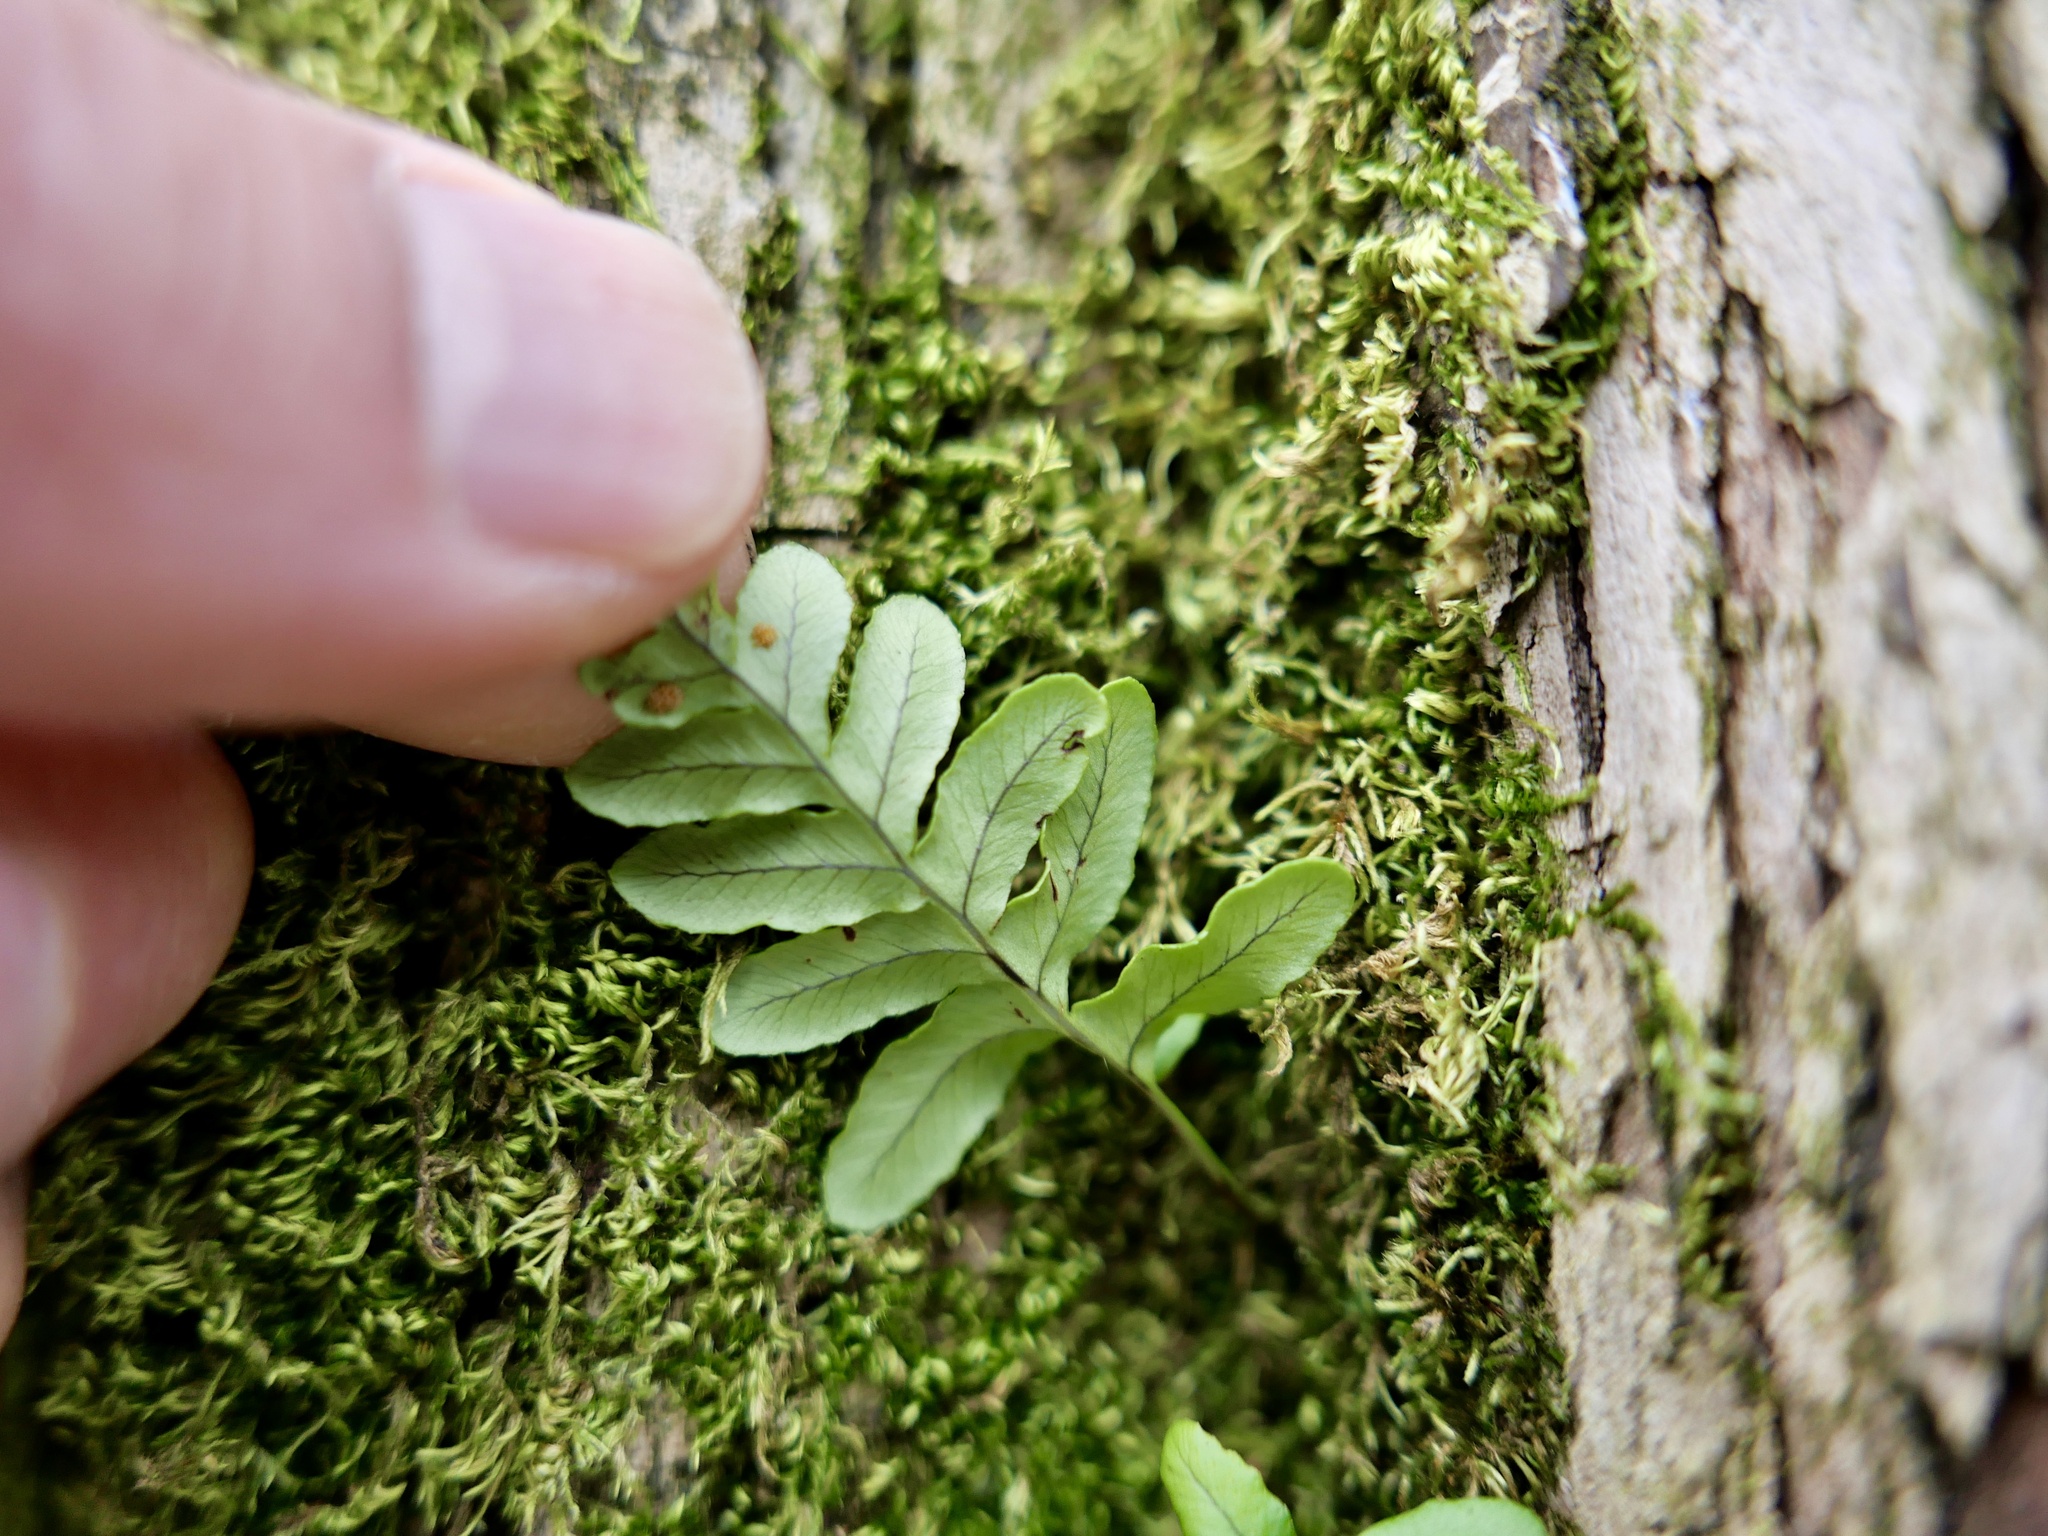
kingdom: Plantae
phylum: Tracheophyta
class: Polypodiopsida
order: Polypodiales
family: Polypodiaceae
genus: Polypodium
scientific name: Polypodium glycyrrhiza
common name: Licorice fern
